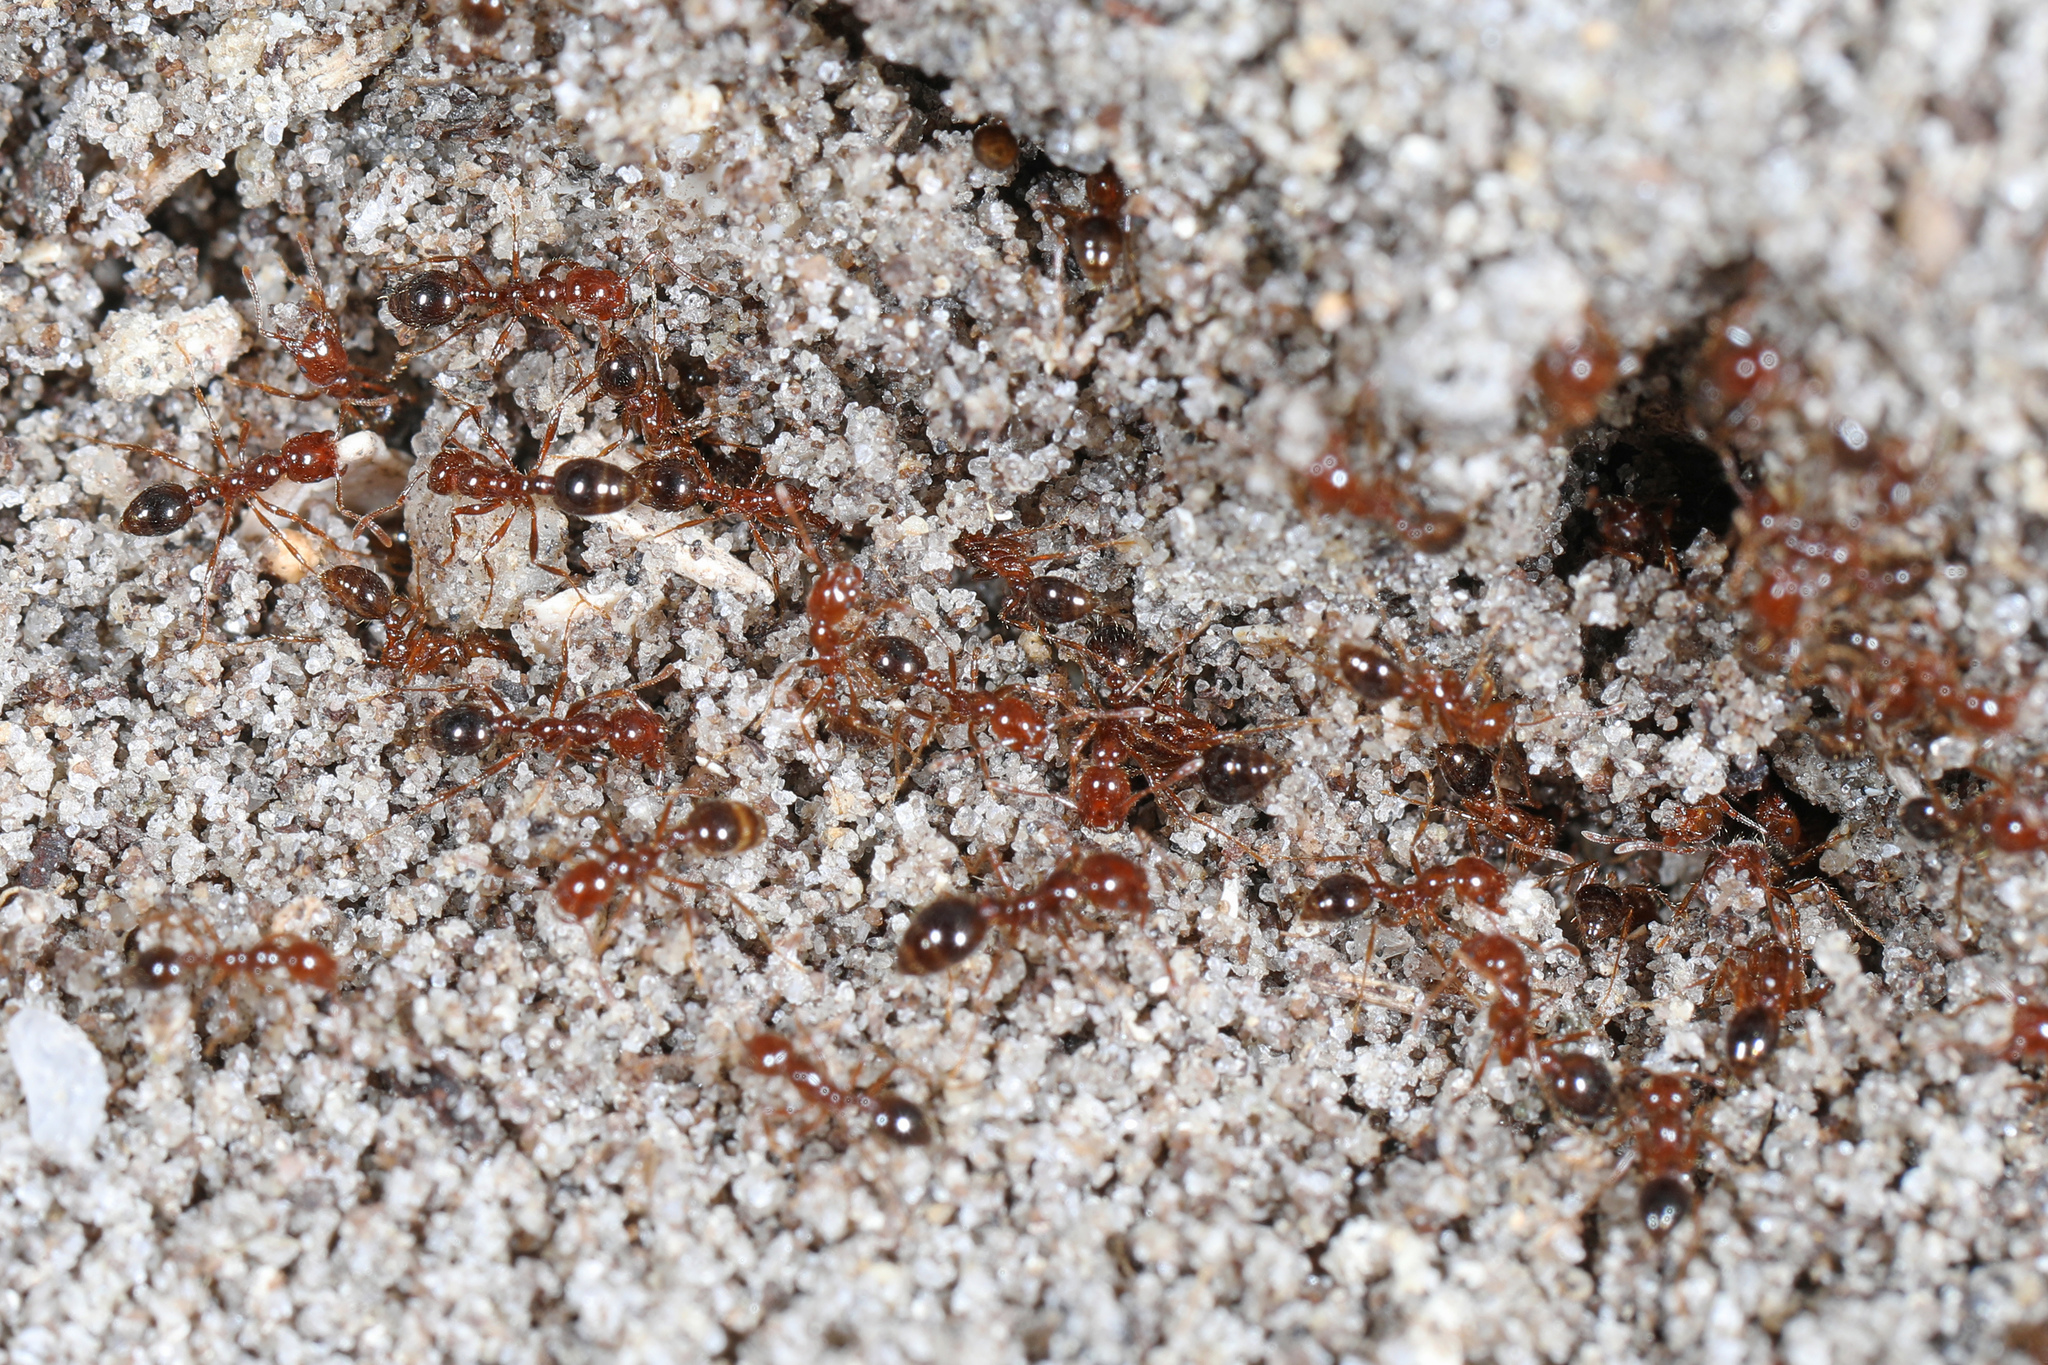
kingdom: Animalia
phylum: Arthropoda
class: Insecta
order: Hymenoptera
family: Formicidae
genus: Solenopsis
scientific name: Solenopsis invicta
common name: Red imported fire ant
